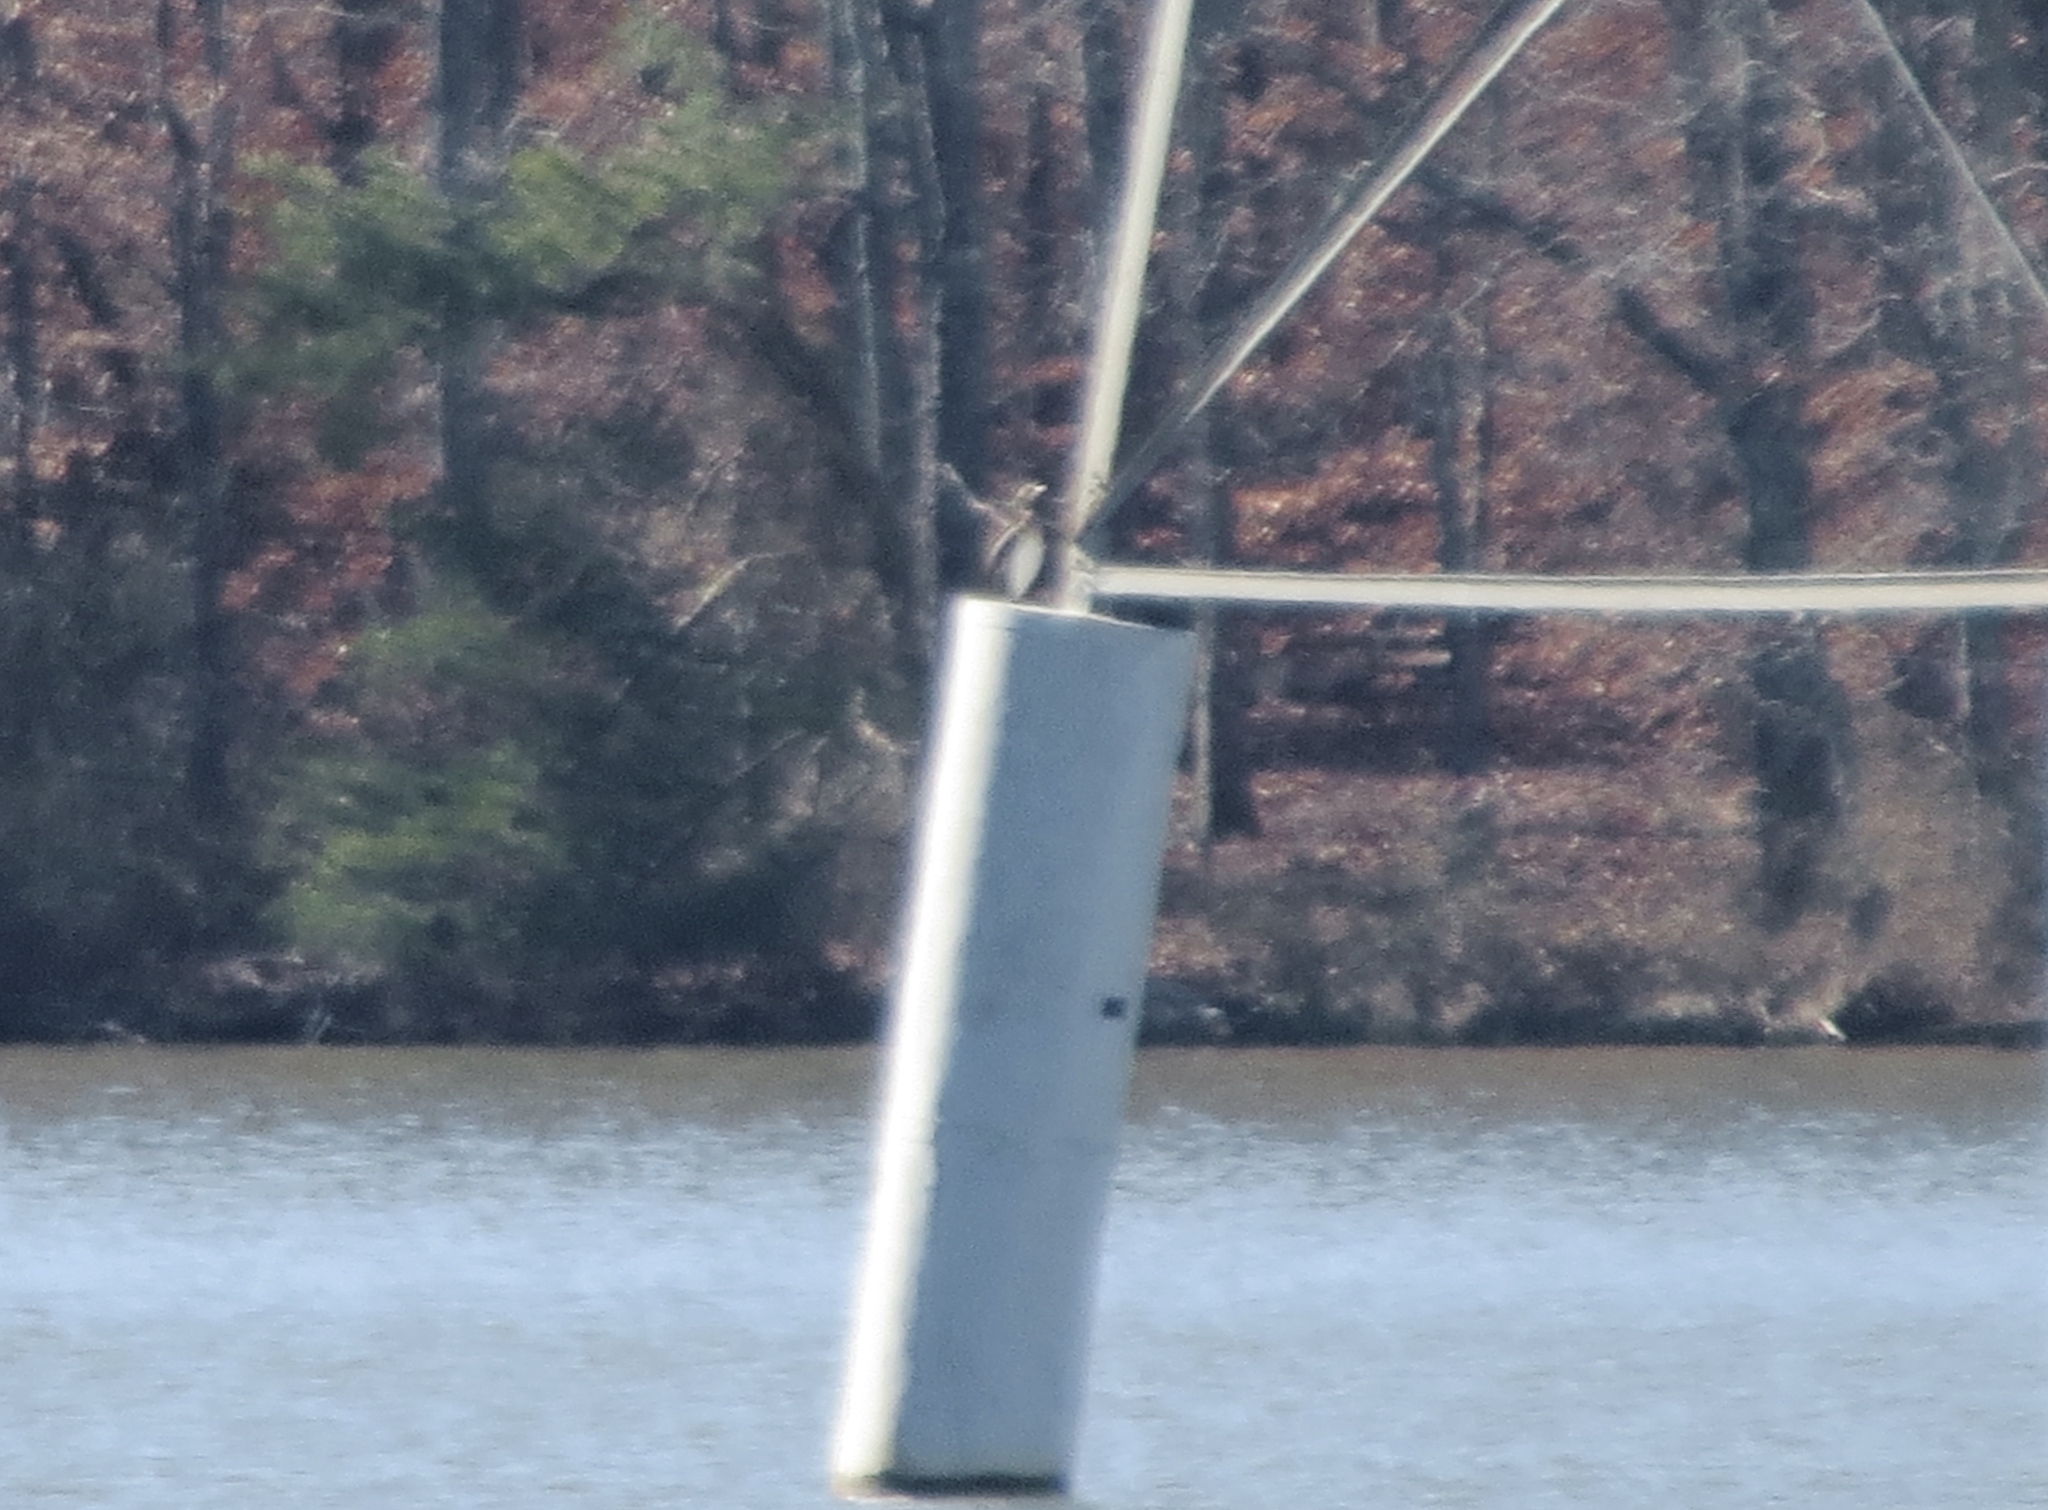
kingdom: Animalia
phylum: Chordata
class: Aves
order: Suliformes
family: Phalacrocoracidae
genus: Phalacrocorax
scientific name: Phalacrocorax carbo
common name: Great cormorant
